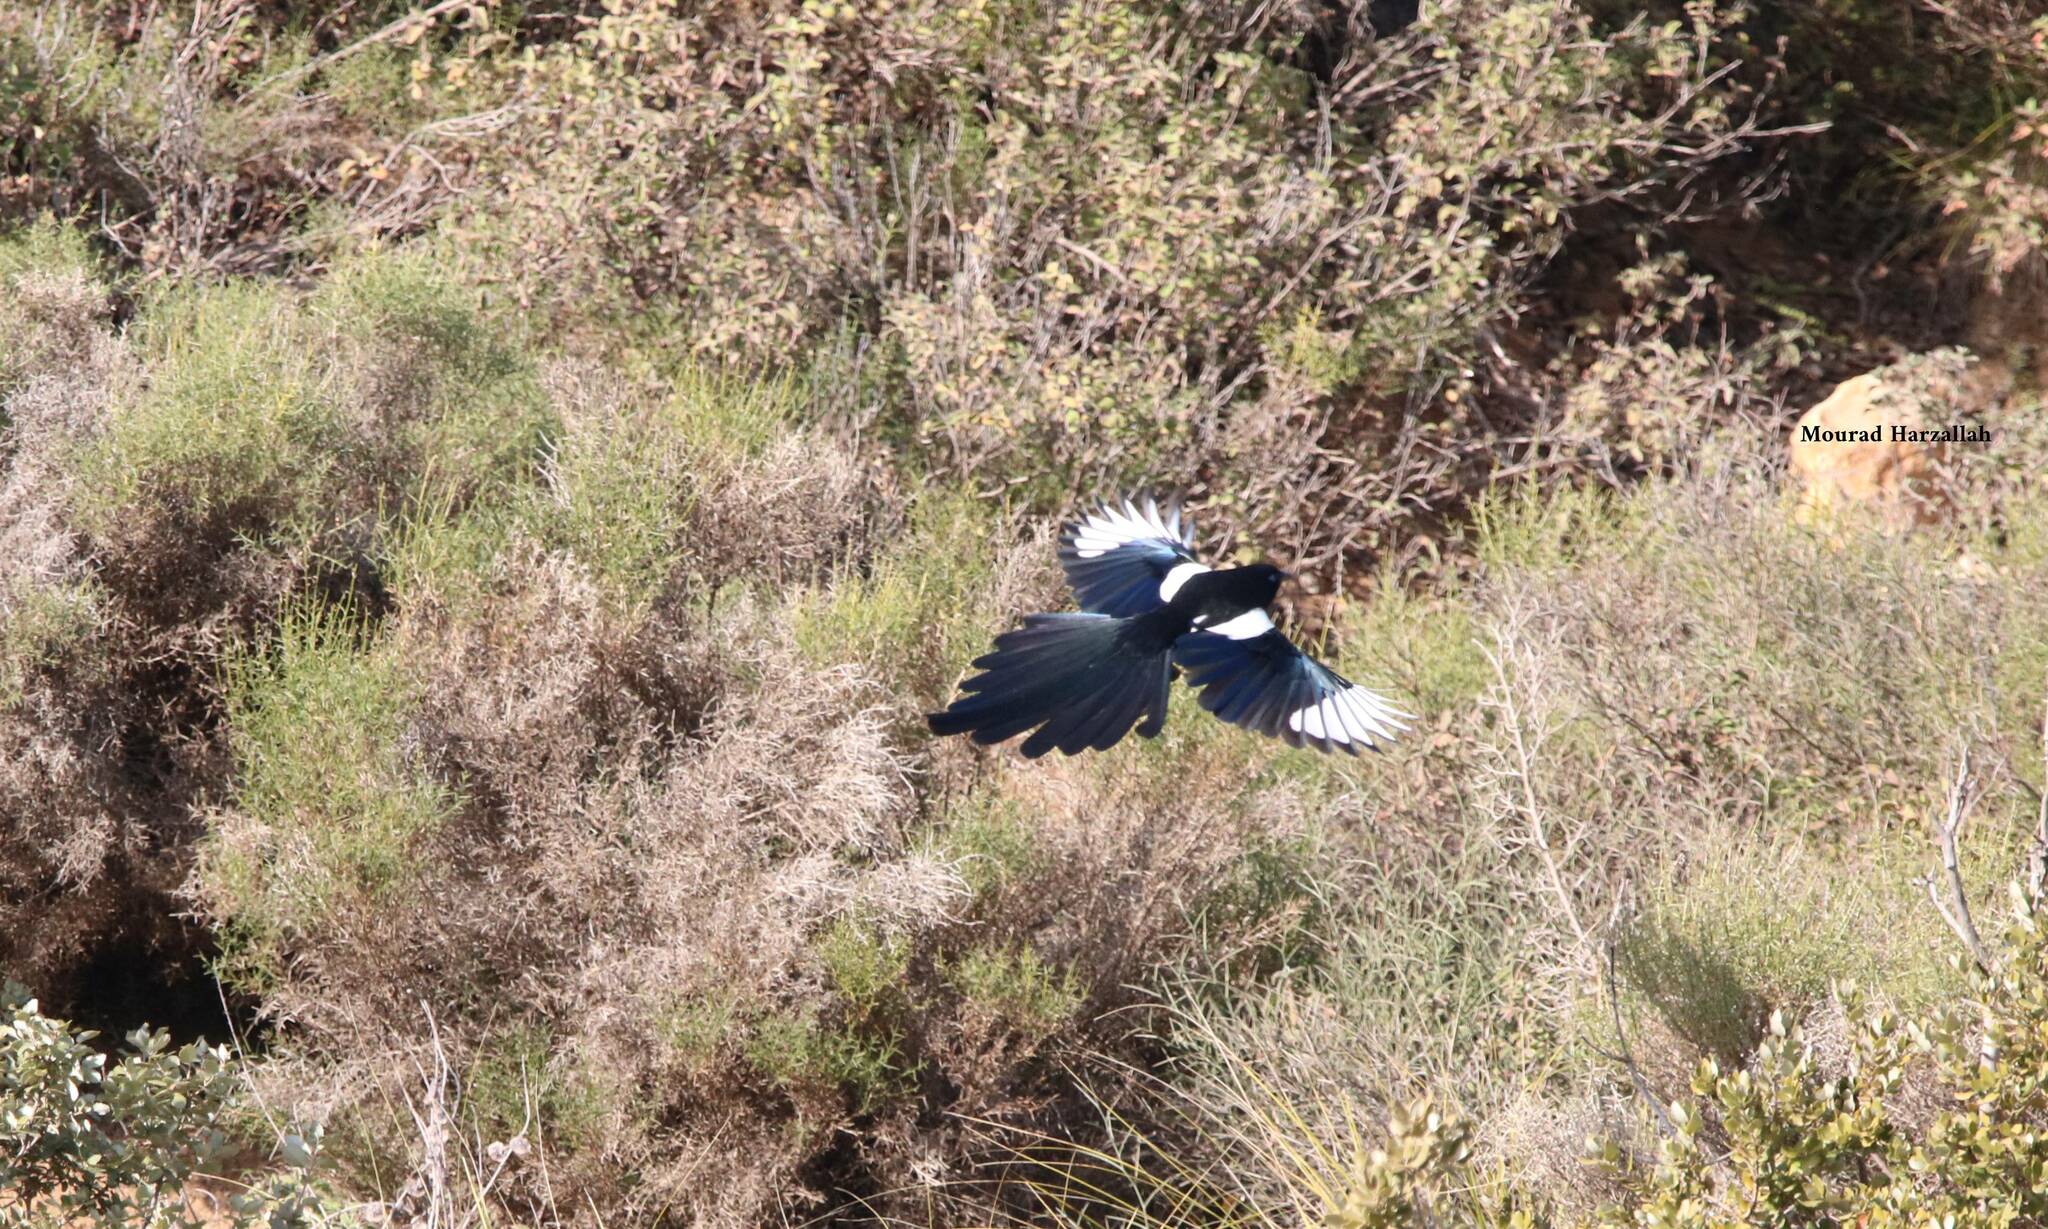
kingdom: Animalia
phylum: Chordata
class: Aves
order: Passeriformes
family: Corvidae
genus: Pica
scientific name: Pica mauritanica
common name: Maghreb magpie
